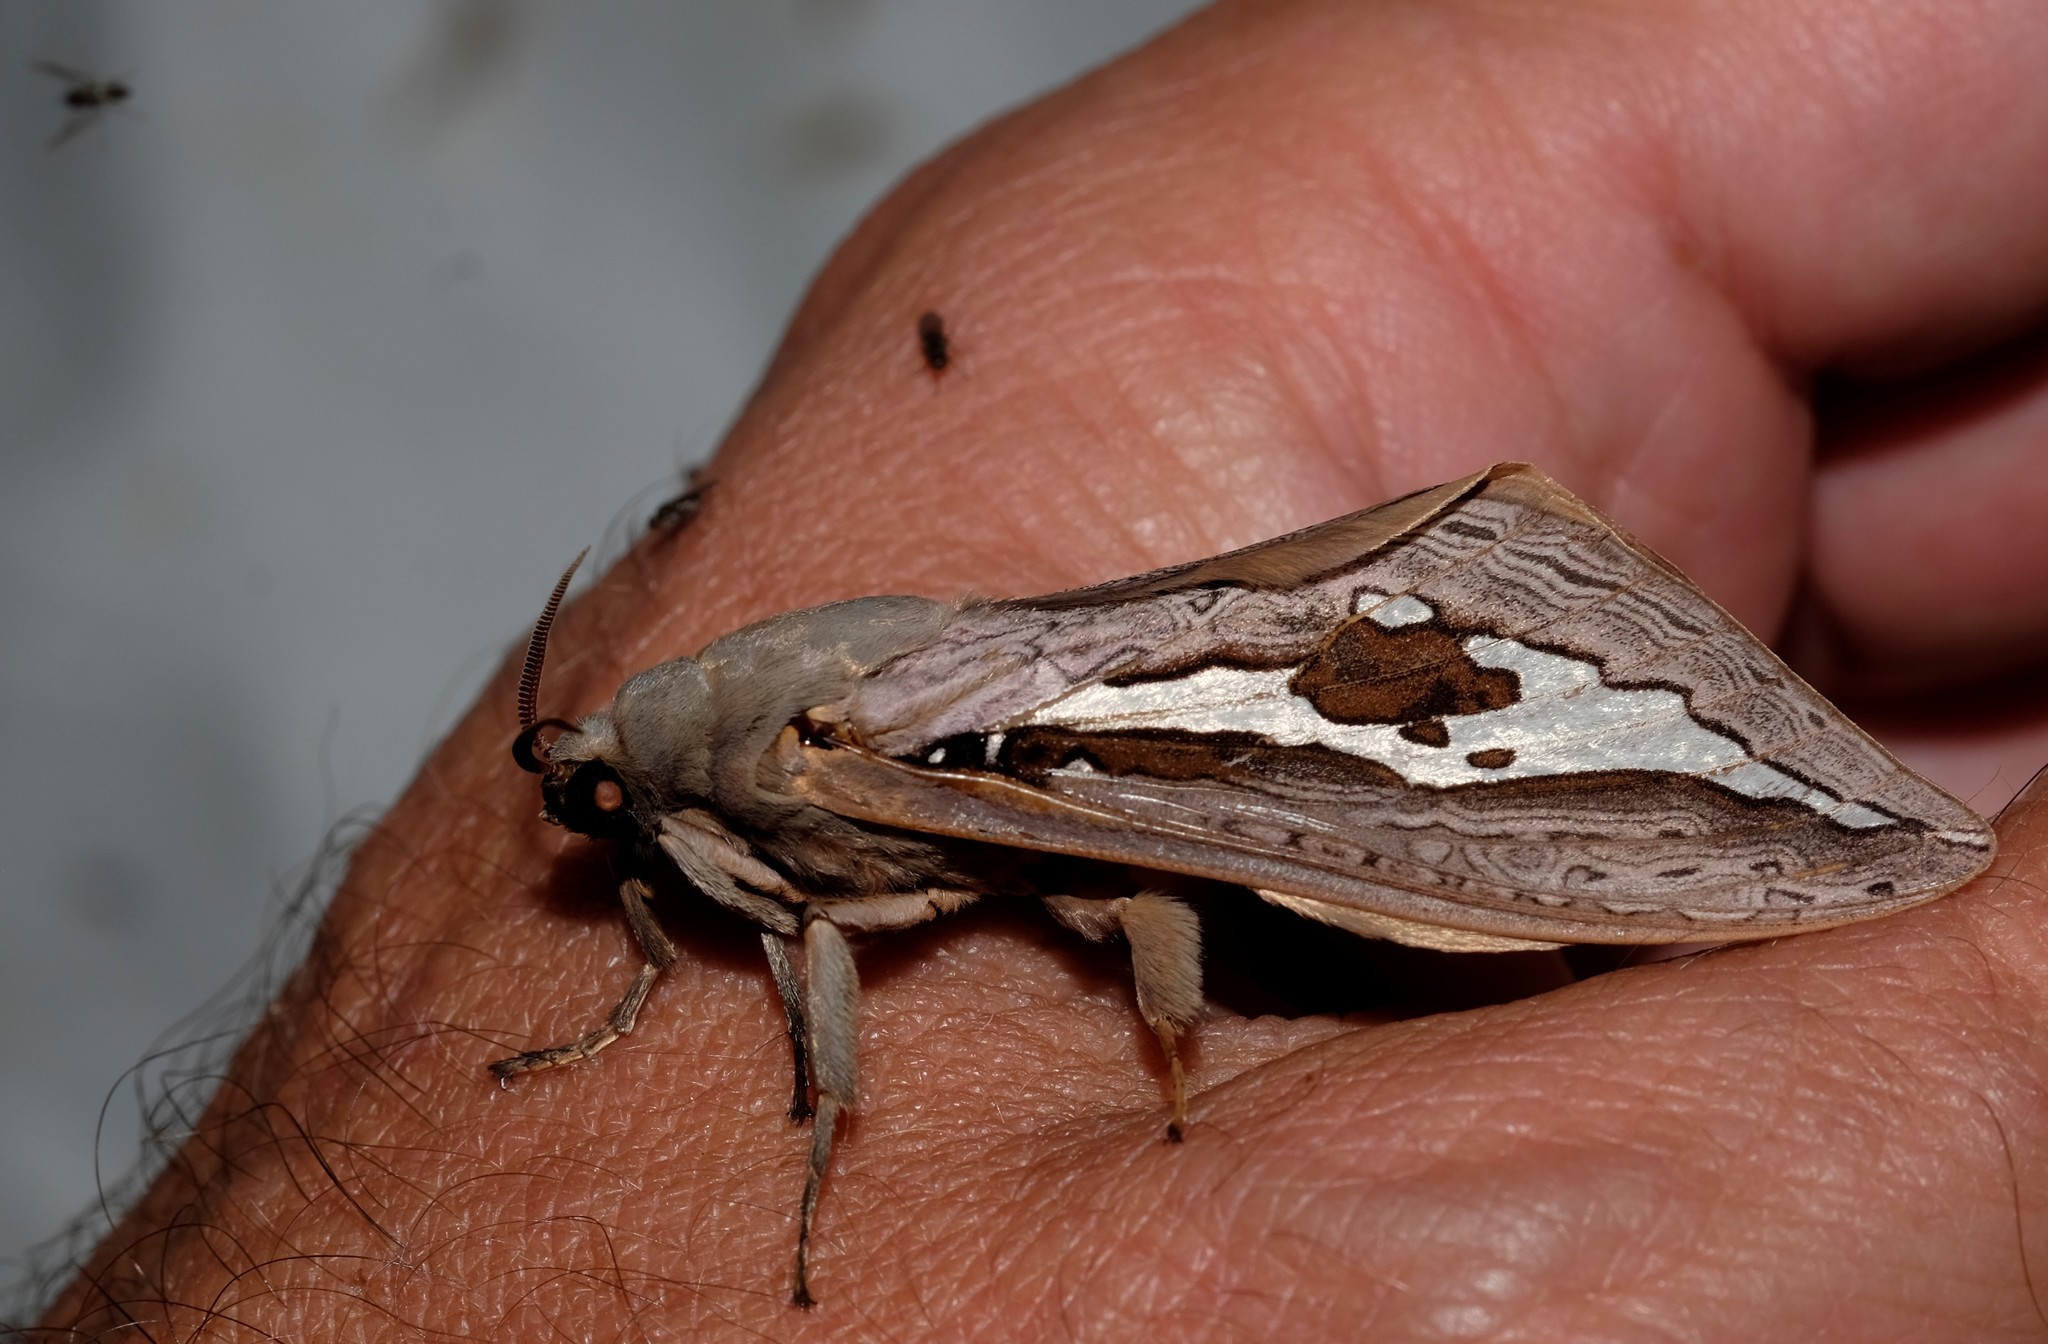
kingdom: Animalia
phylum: Arthropoda
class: Insecta
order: Lepidoptera
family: Hepialidae
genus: Abantiades
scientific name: Abantiades labyrinthicus
